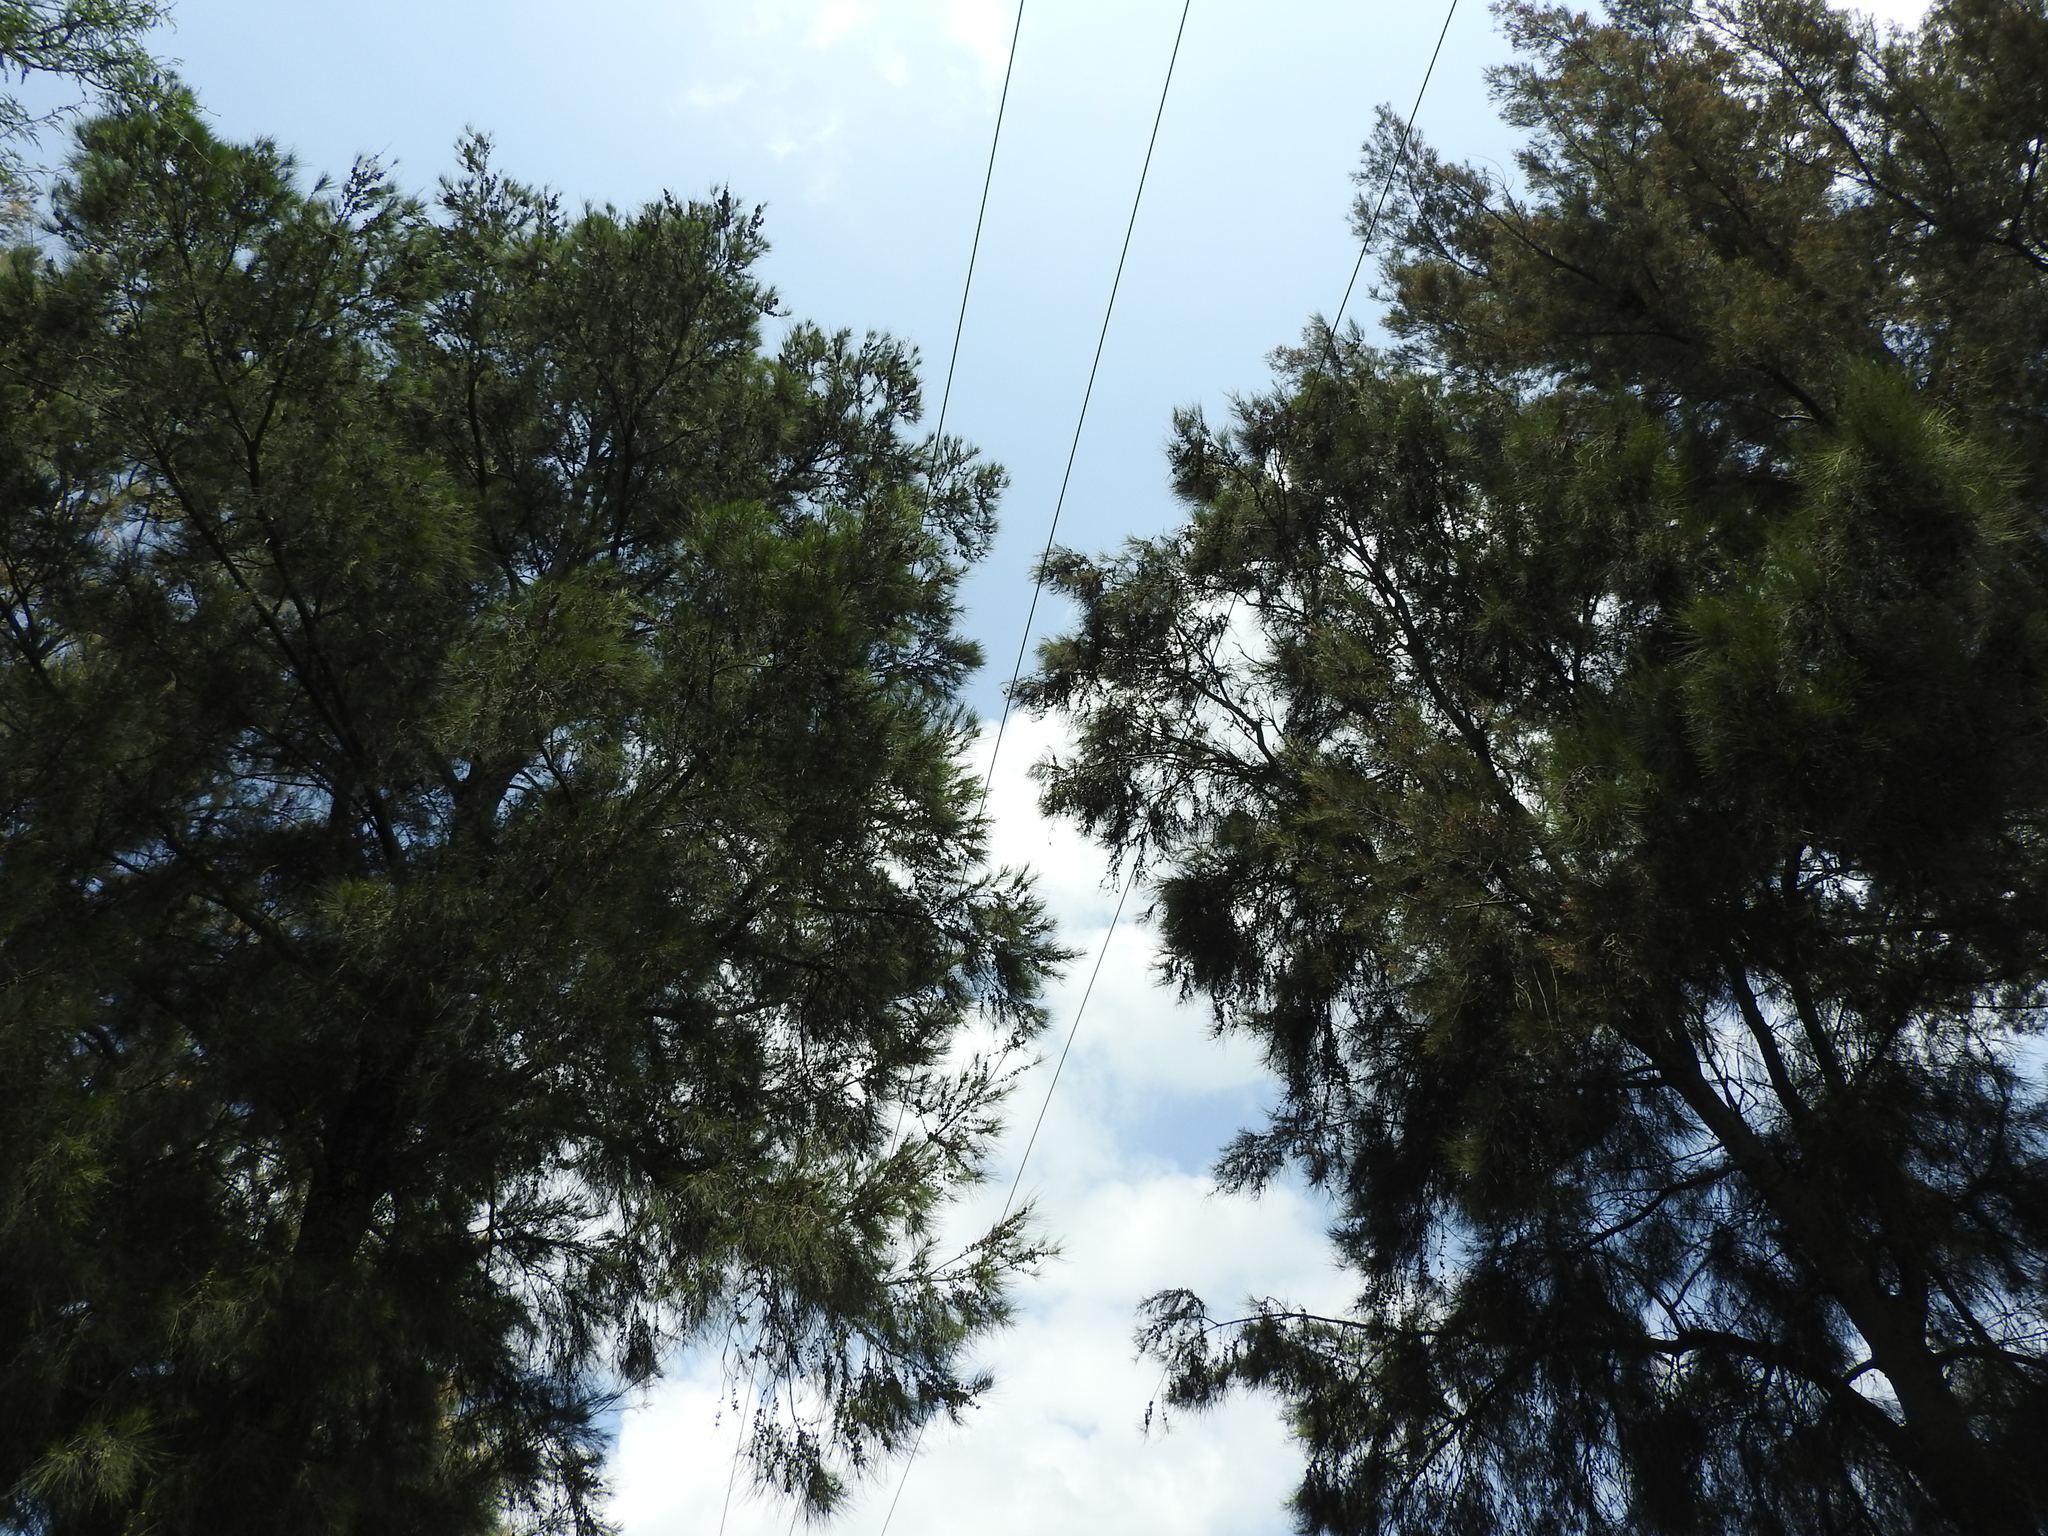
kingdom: Plantae
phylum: Tracheophyta
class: Magnoliopsida
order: Fagales
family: Casuarinaceae
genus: Casuarina
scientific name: Casuarina equisetifolia
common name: Beach sheoak
